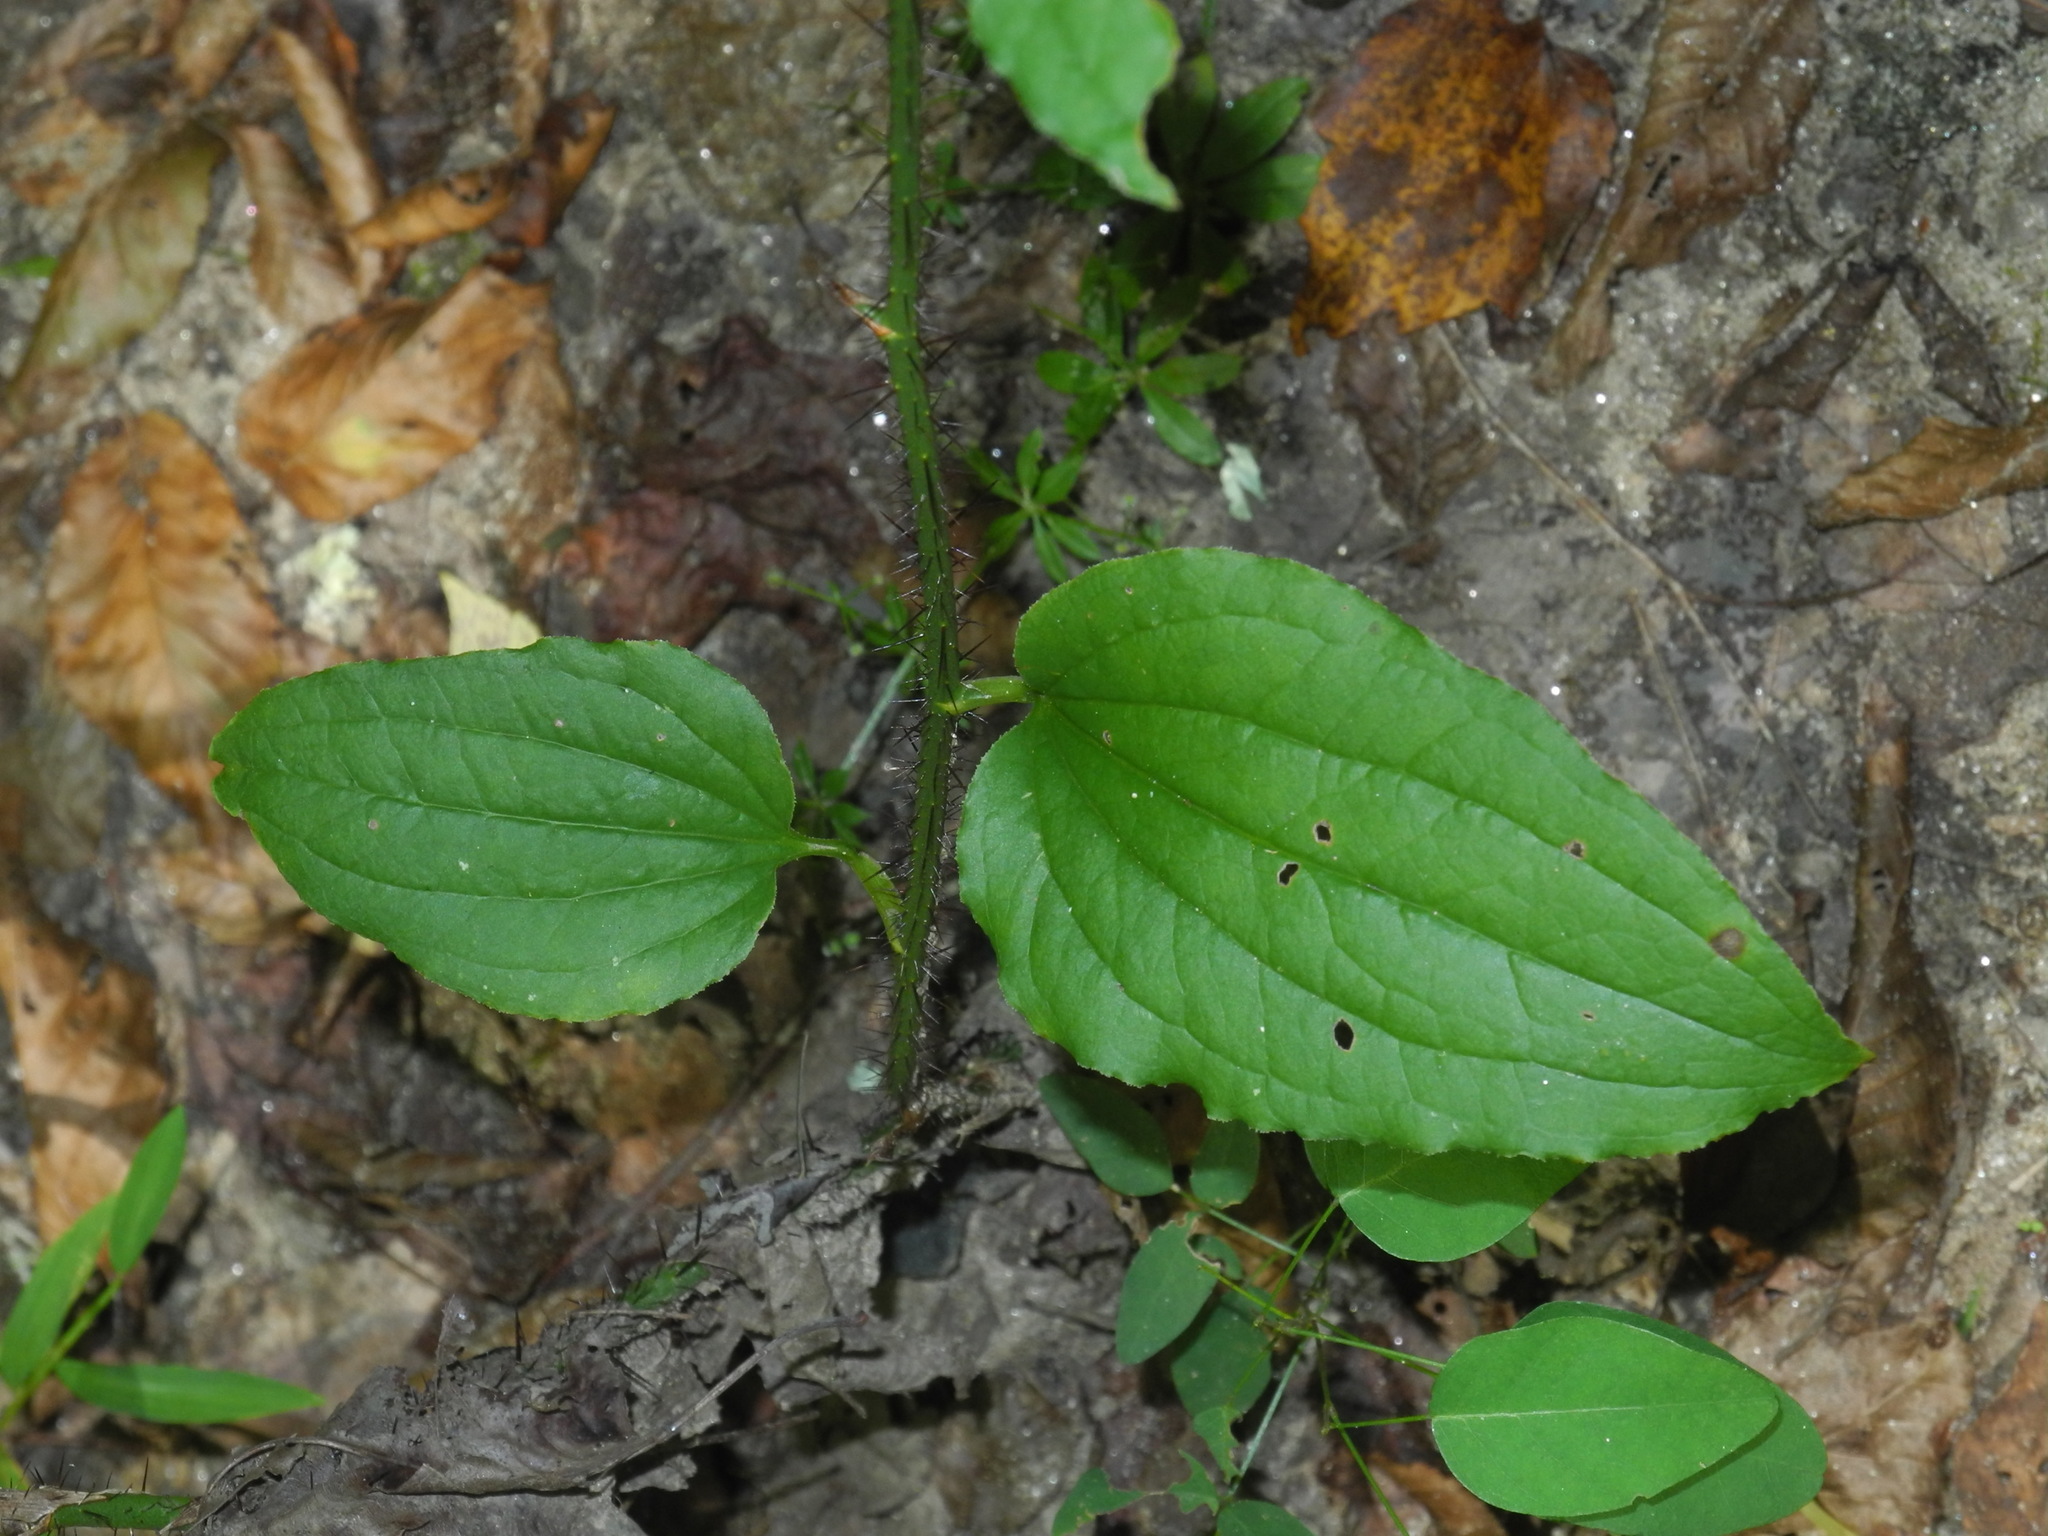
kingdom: Plantae
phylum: Tracheophyta
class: Liliopsida
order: Liliales
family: Smilacaceae
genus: Smilax
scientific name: Smilax tamnoides
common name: Hellfetter
